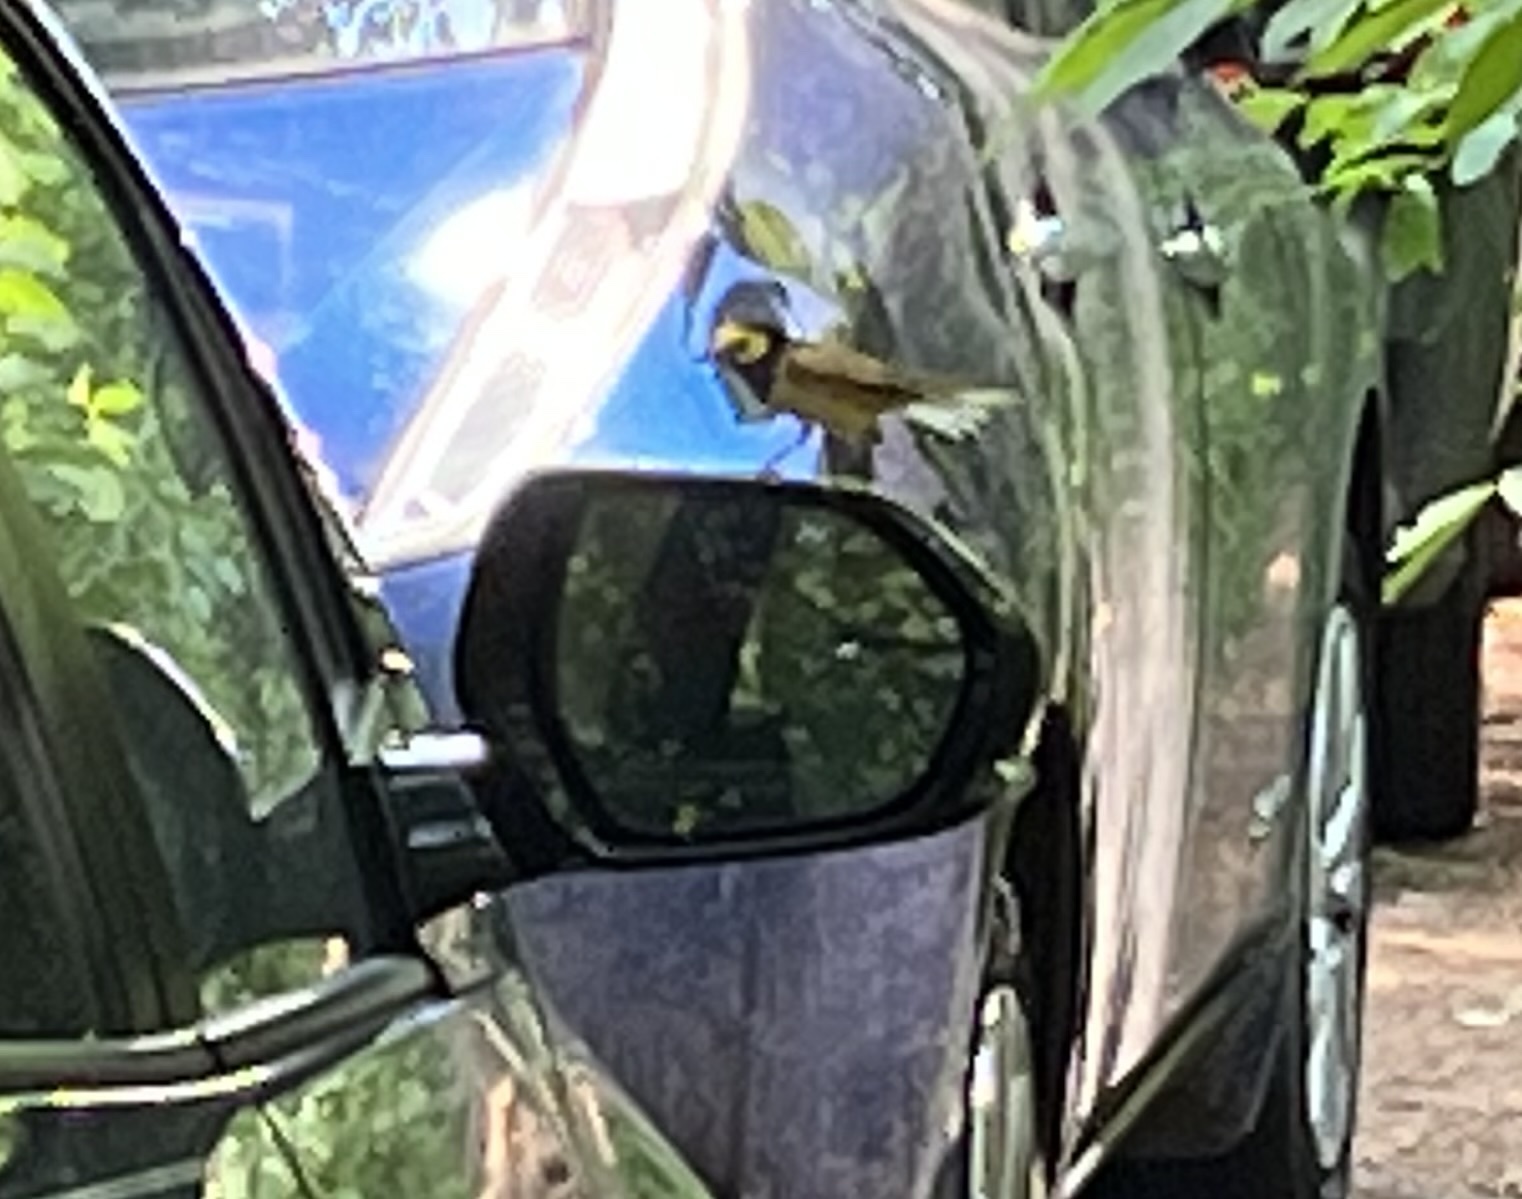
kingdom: Animalia
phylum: Chordata
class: Aves
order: Passeriformes
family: Parulidae
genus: Setophaga
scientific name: Setophaga citrina
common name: Hooded warbler
